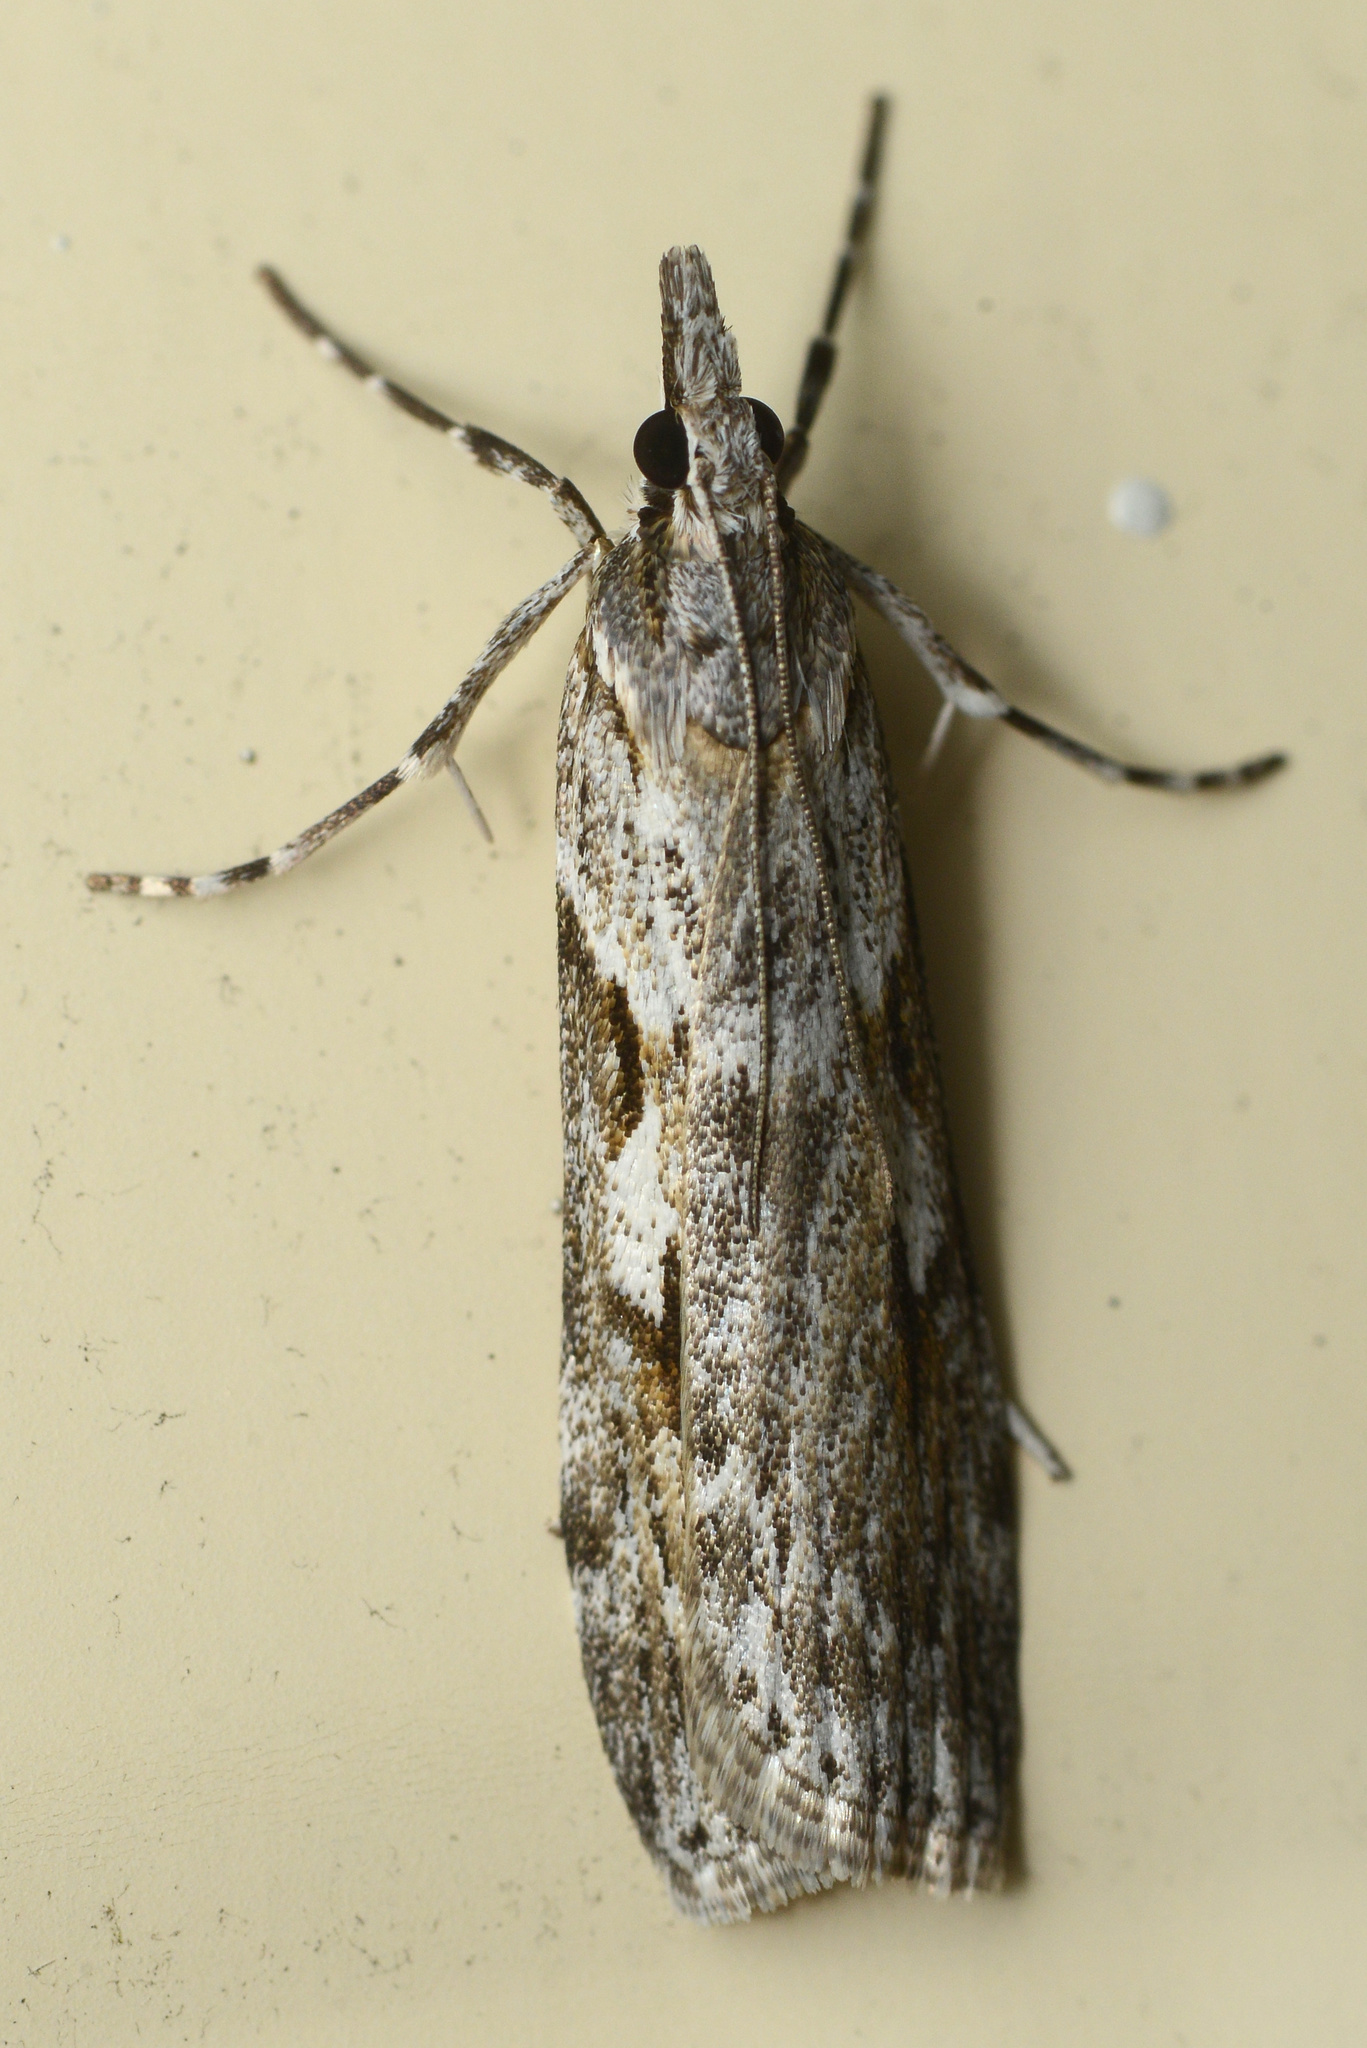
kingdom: Animalia
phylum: Arthropoda
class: Insecta
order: Lepidoptera
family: Crambidae
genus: Scoparia
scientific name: Scoparia halopis
